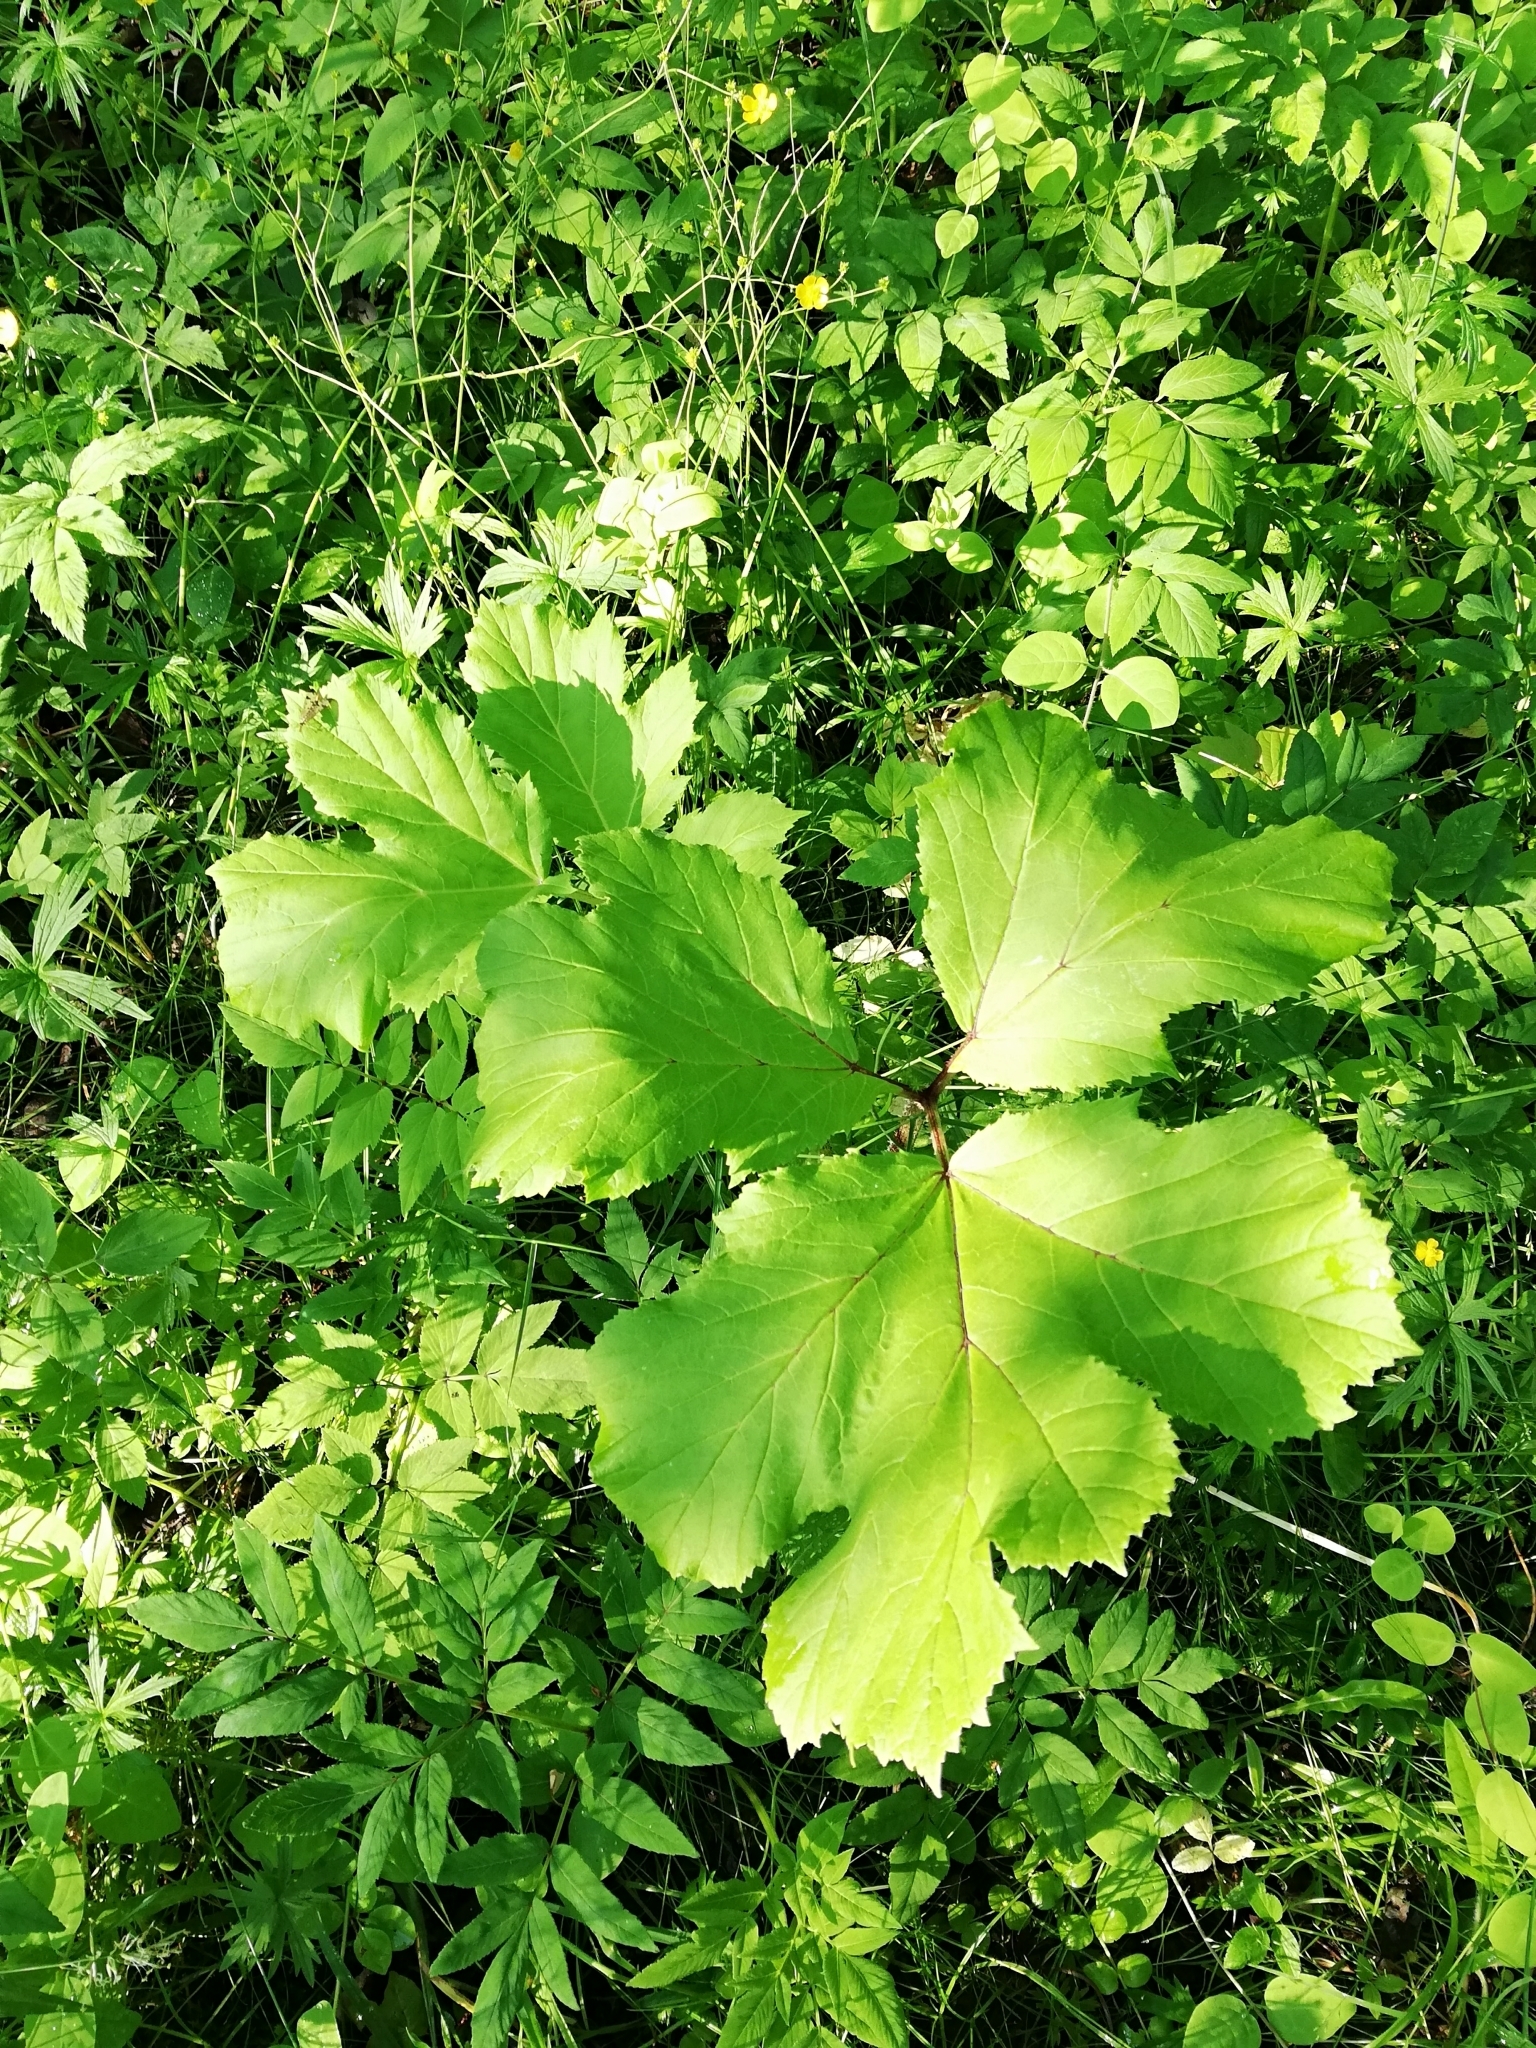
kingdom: Plantae
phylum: Tracheophyta
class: Magnoliopsida
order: Apiales
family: Apiaceae
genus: Heracleum
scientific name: Heracleum sosnowskyi
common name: Sosnowsky's hogweed
